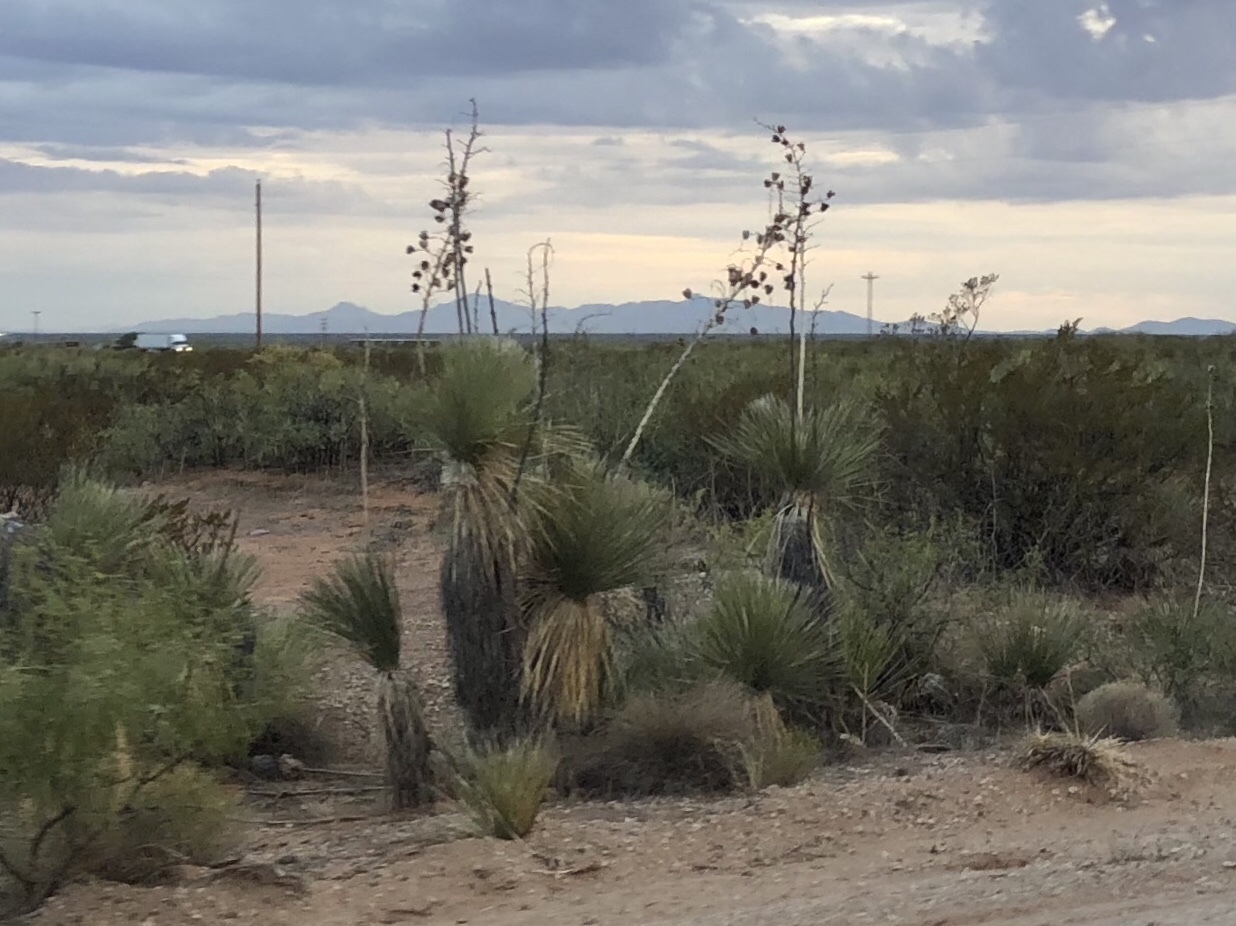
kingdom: Plantae
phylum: Tracheophyta
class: Liliopsida
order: Asparagales
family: Asparagaceae
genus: Yucca
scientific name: Yucca elata
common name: Palmella
